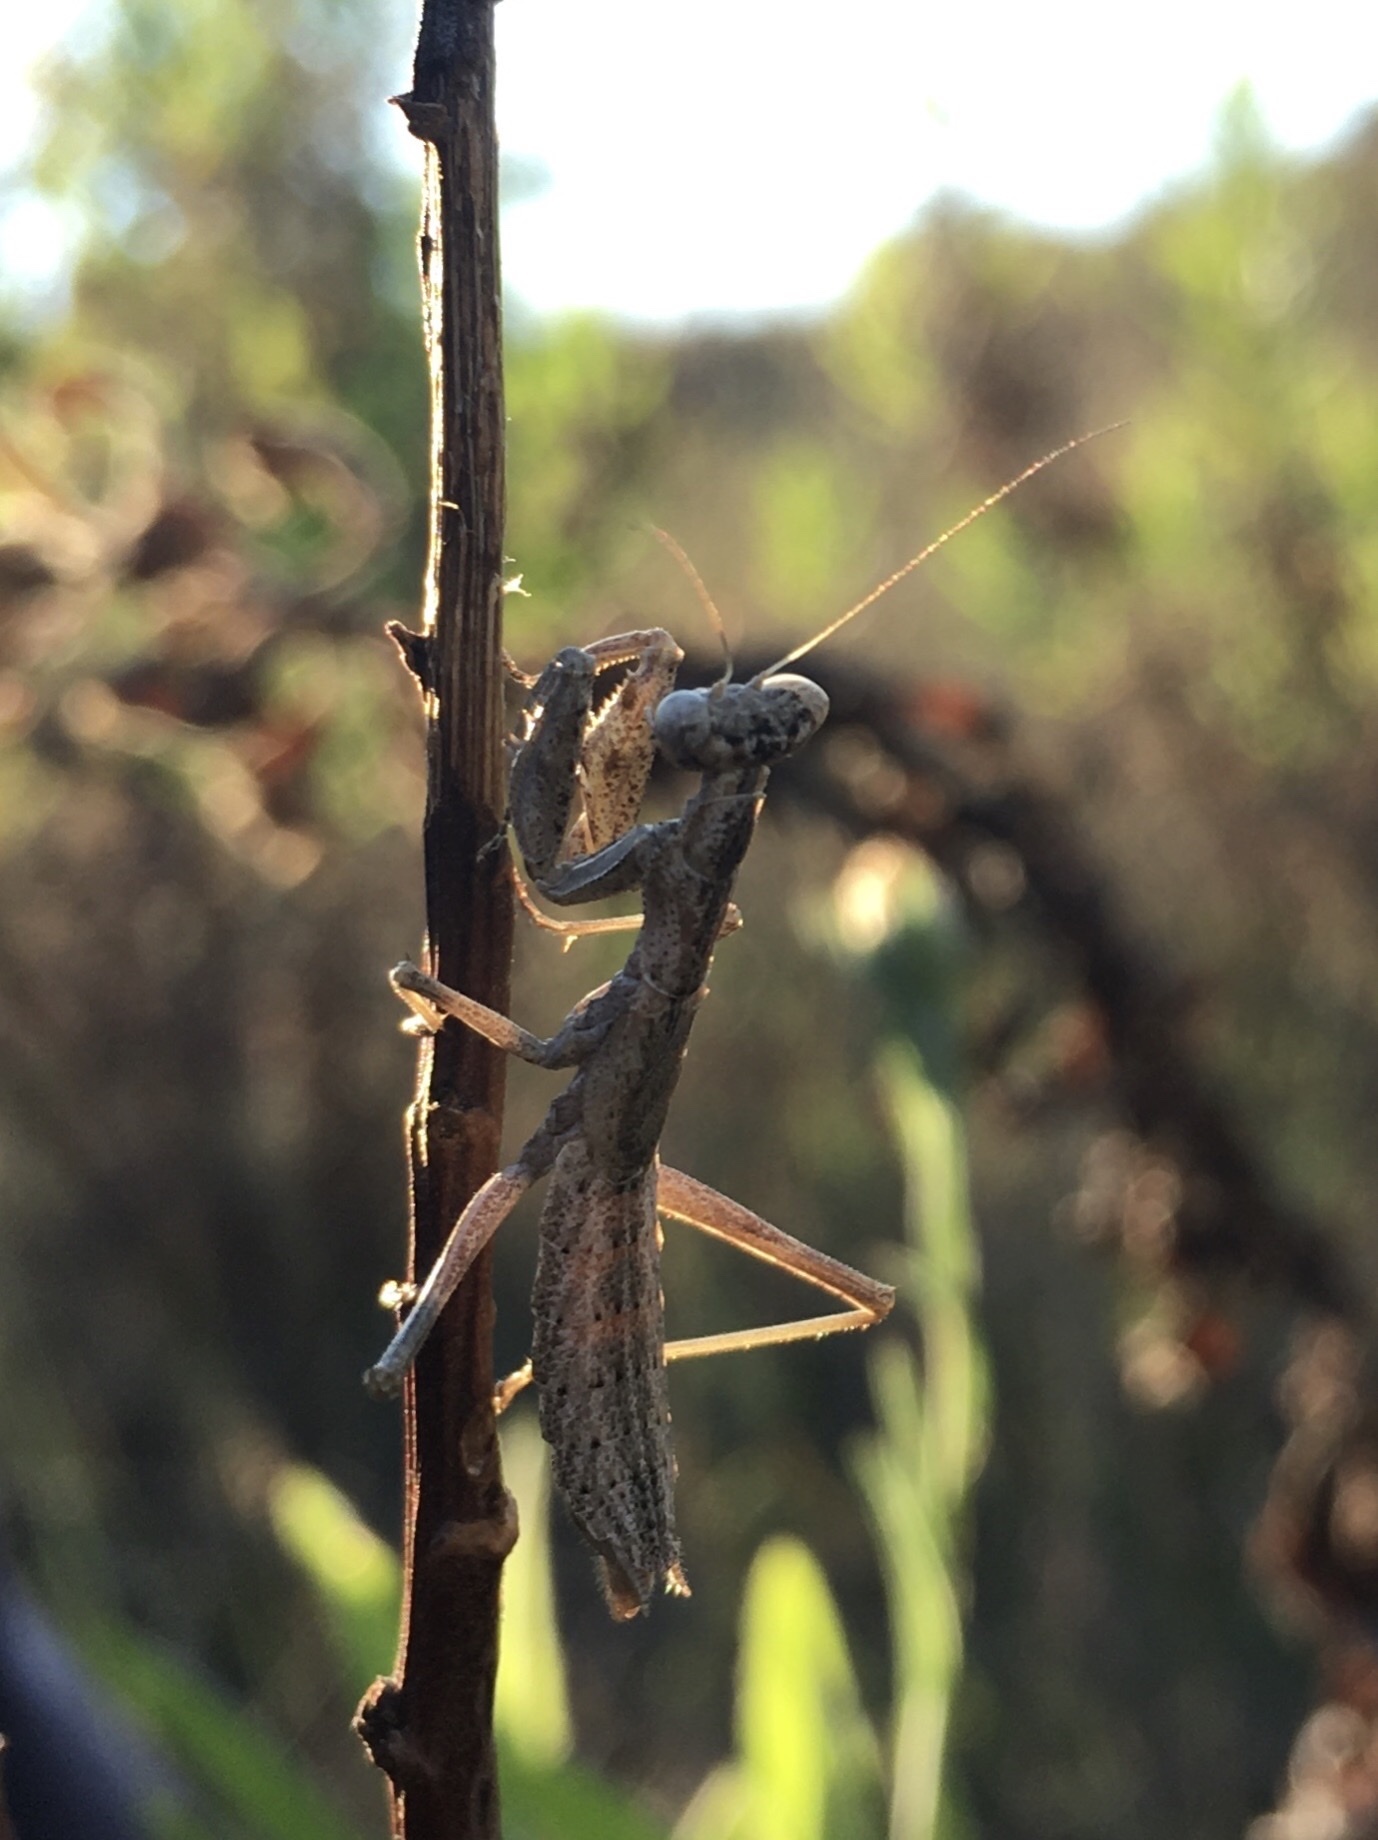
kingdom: Animalia
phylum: Arthropoda
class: Insecta
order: Mantodea
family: Amelidae
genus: Ameles
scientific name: Ameles decolor
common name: Dwarf mantis
